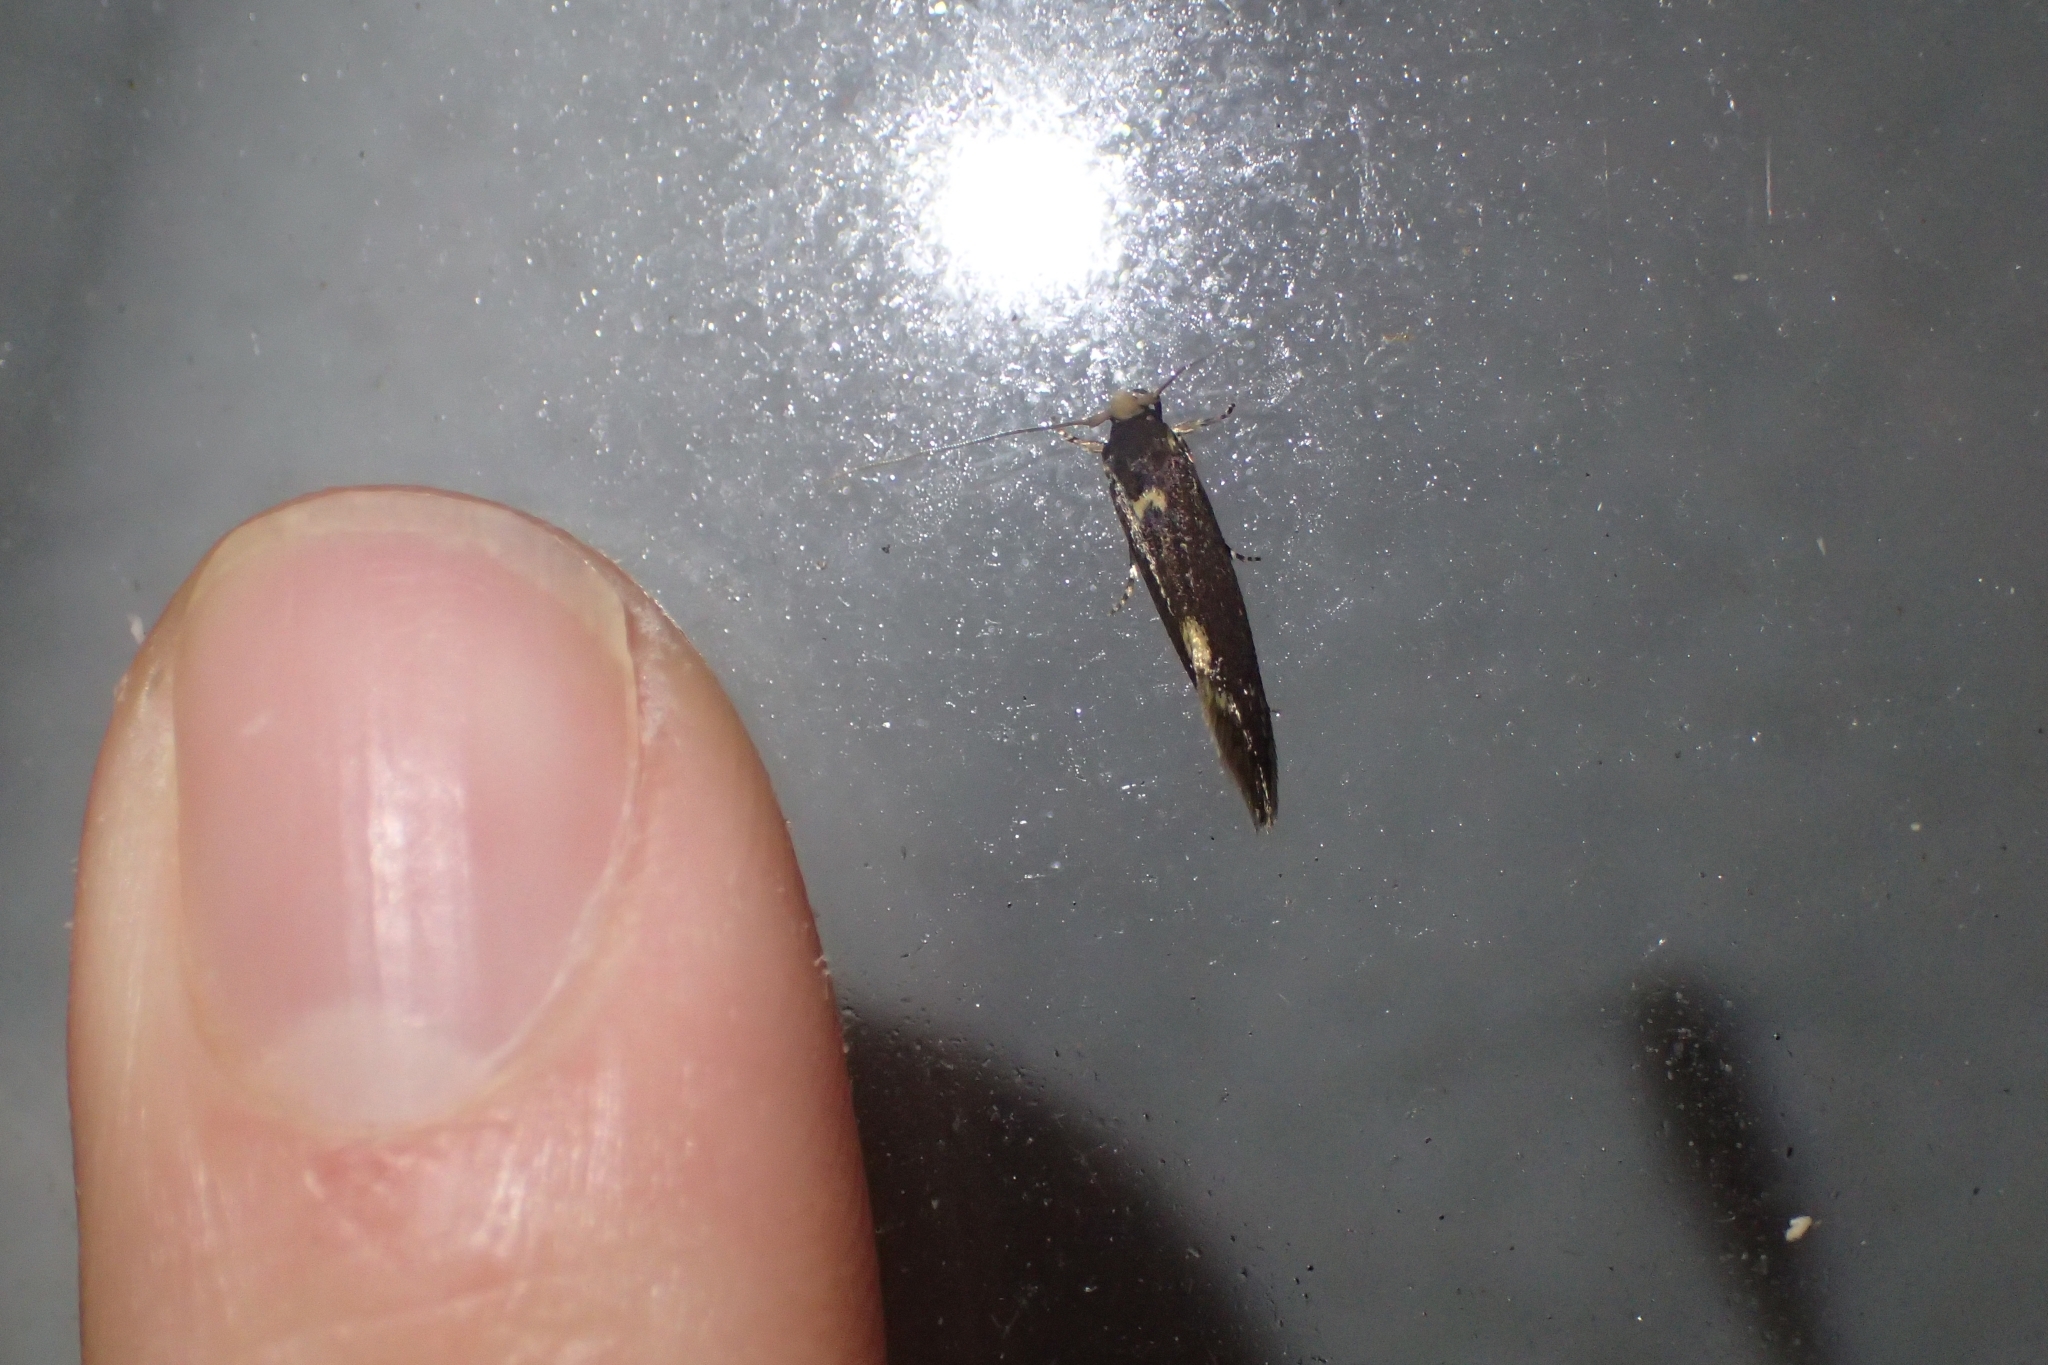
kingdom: Animalia
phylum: Arthropoda
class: Insecta
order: Lepidoptera
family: Tineidae
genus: Opogona
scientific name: Opogona omoscopa
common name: Moth
